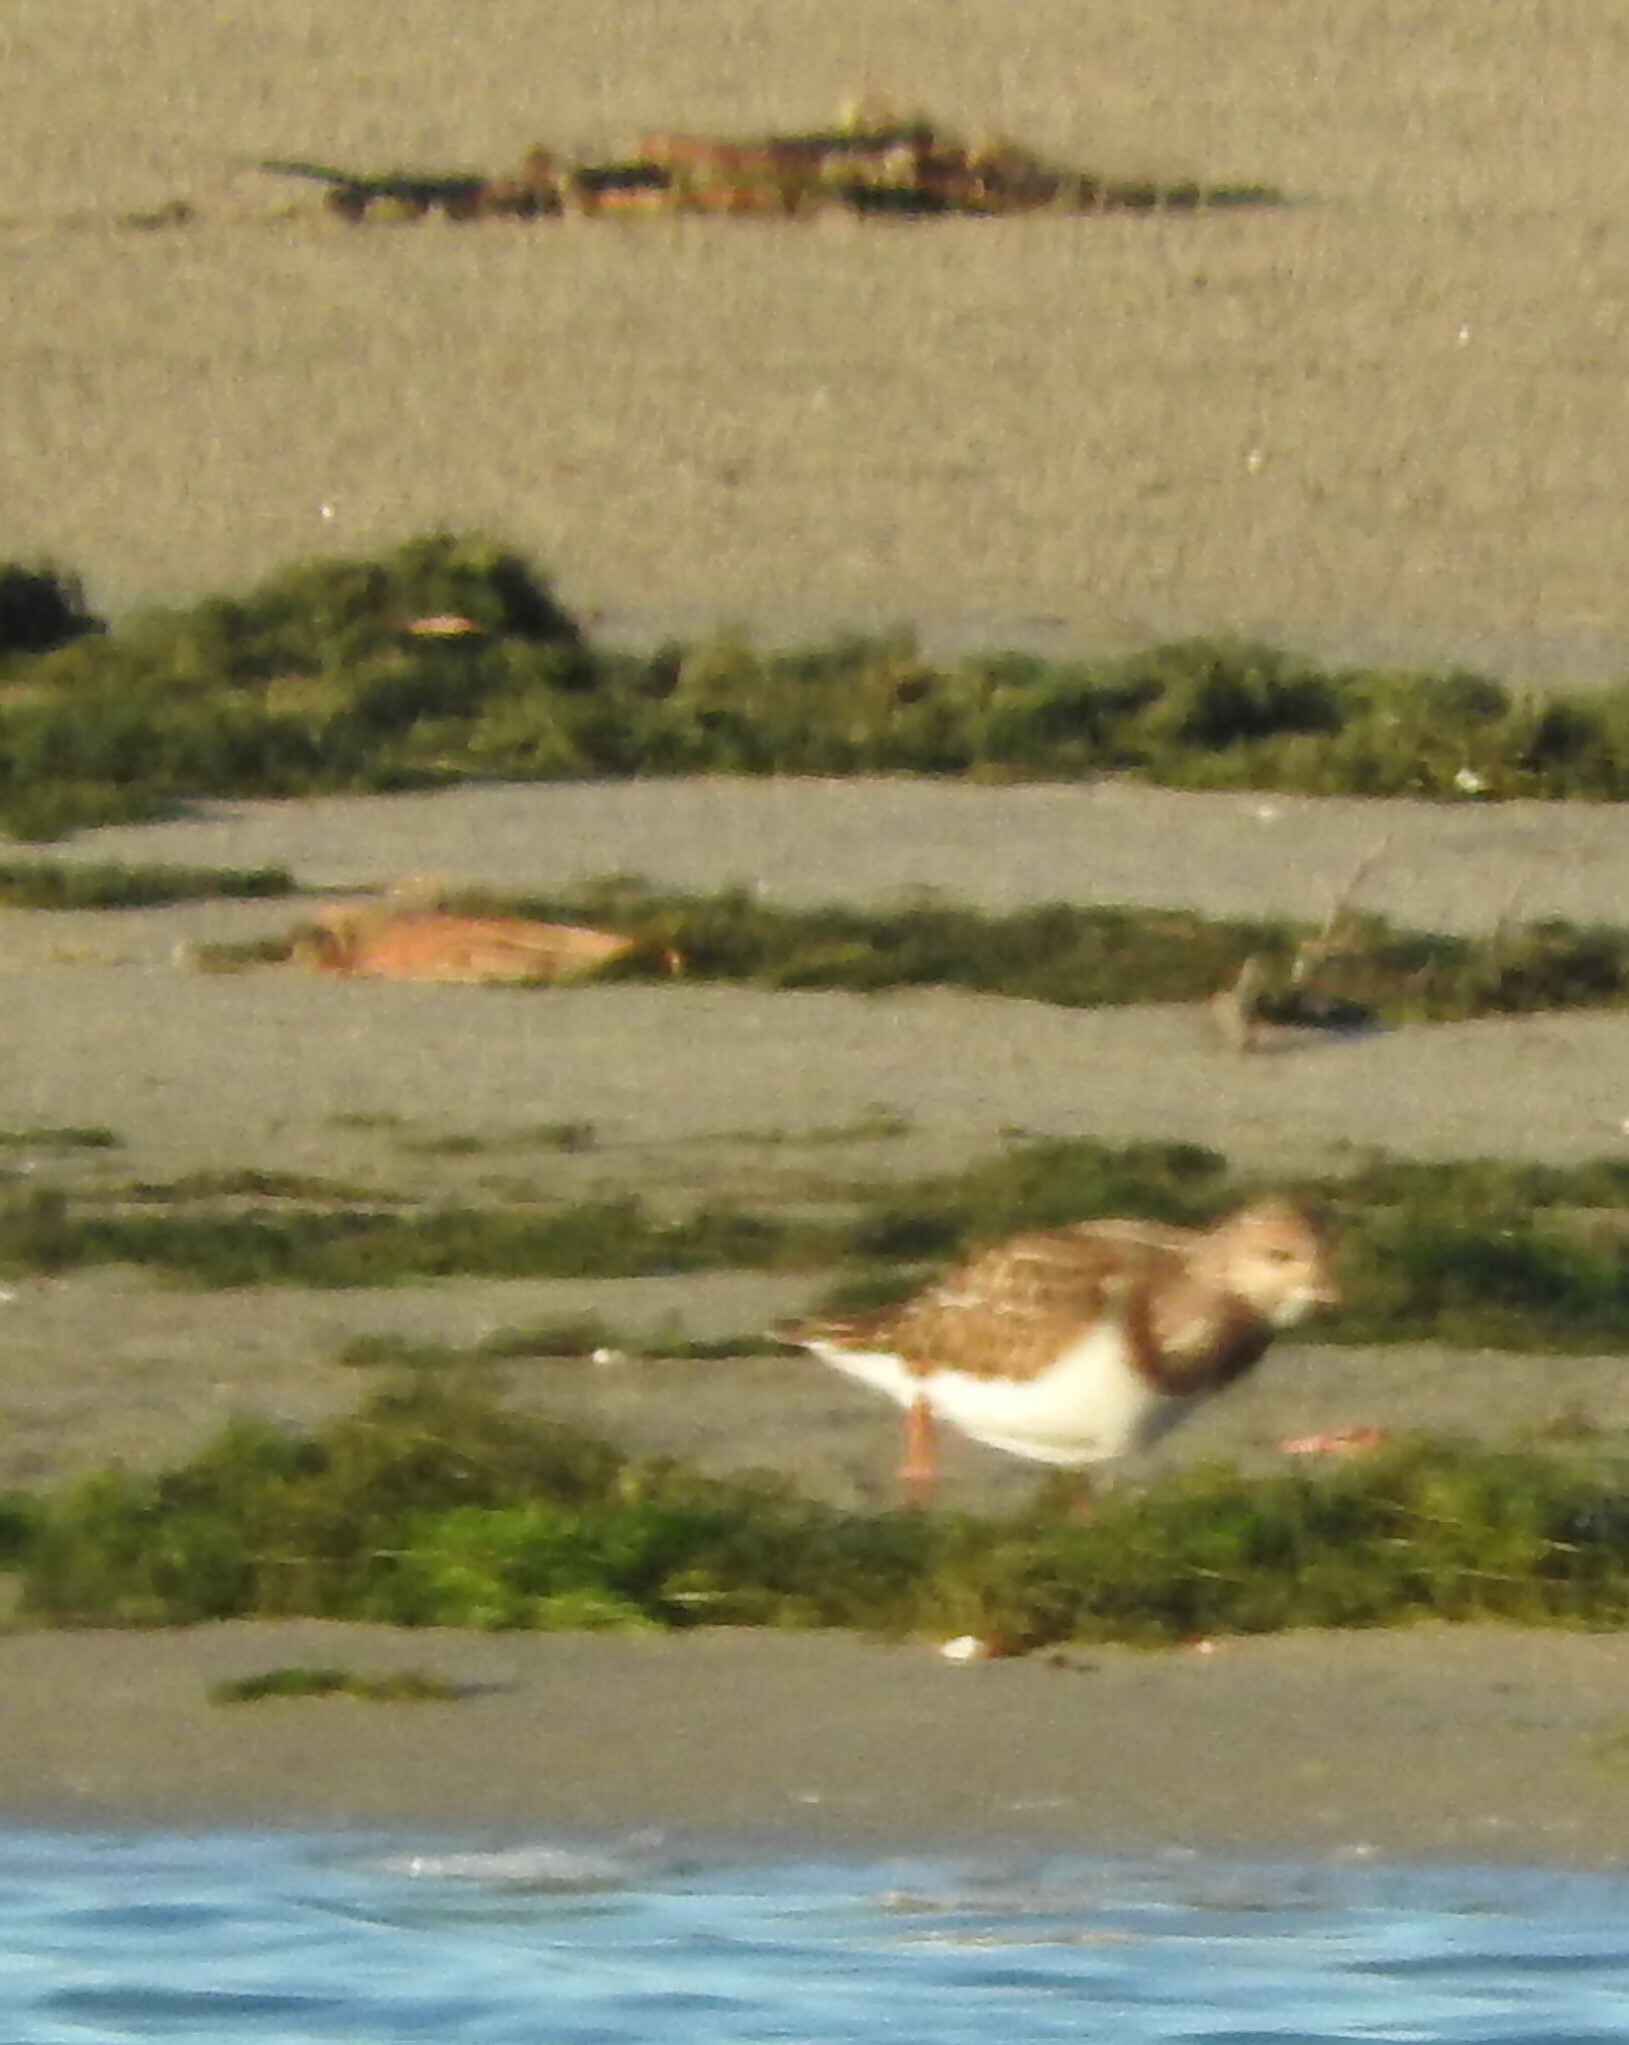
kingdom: Animalia
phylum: Chordata
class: Aves
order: Charadriiformes
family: Scolopacidae
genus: Arenaria
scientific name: Arenaria interpres
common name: Ruddy turnstone
